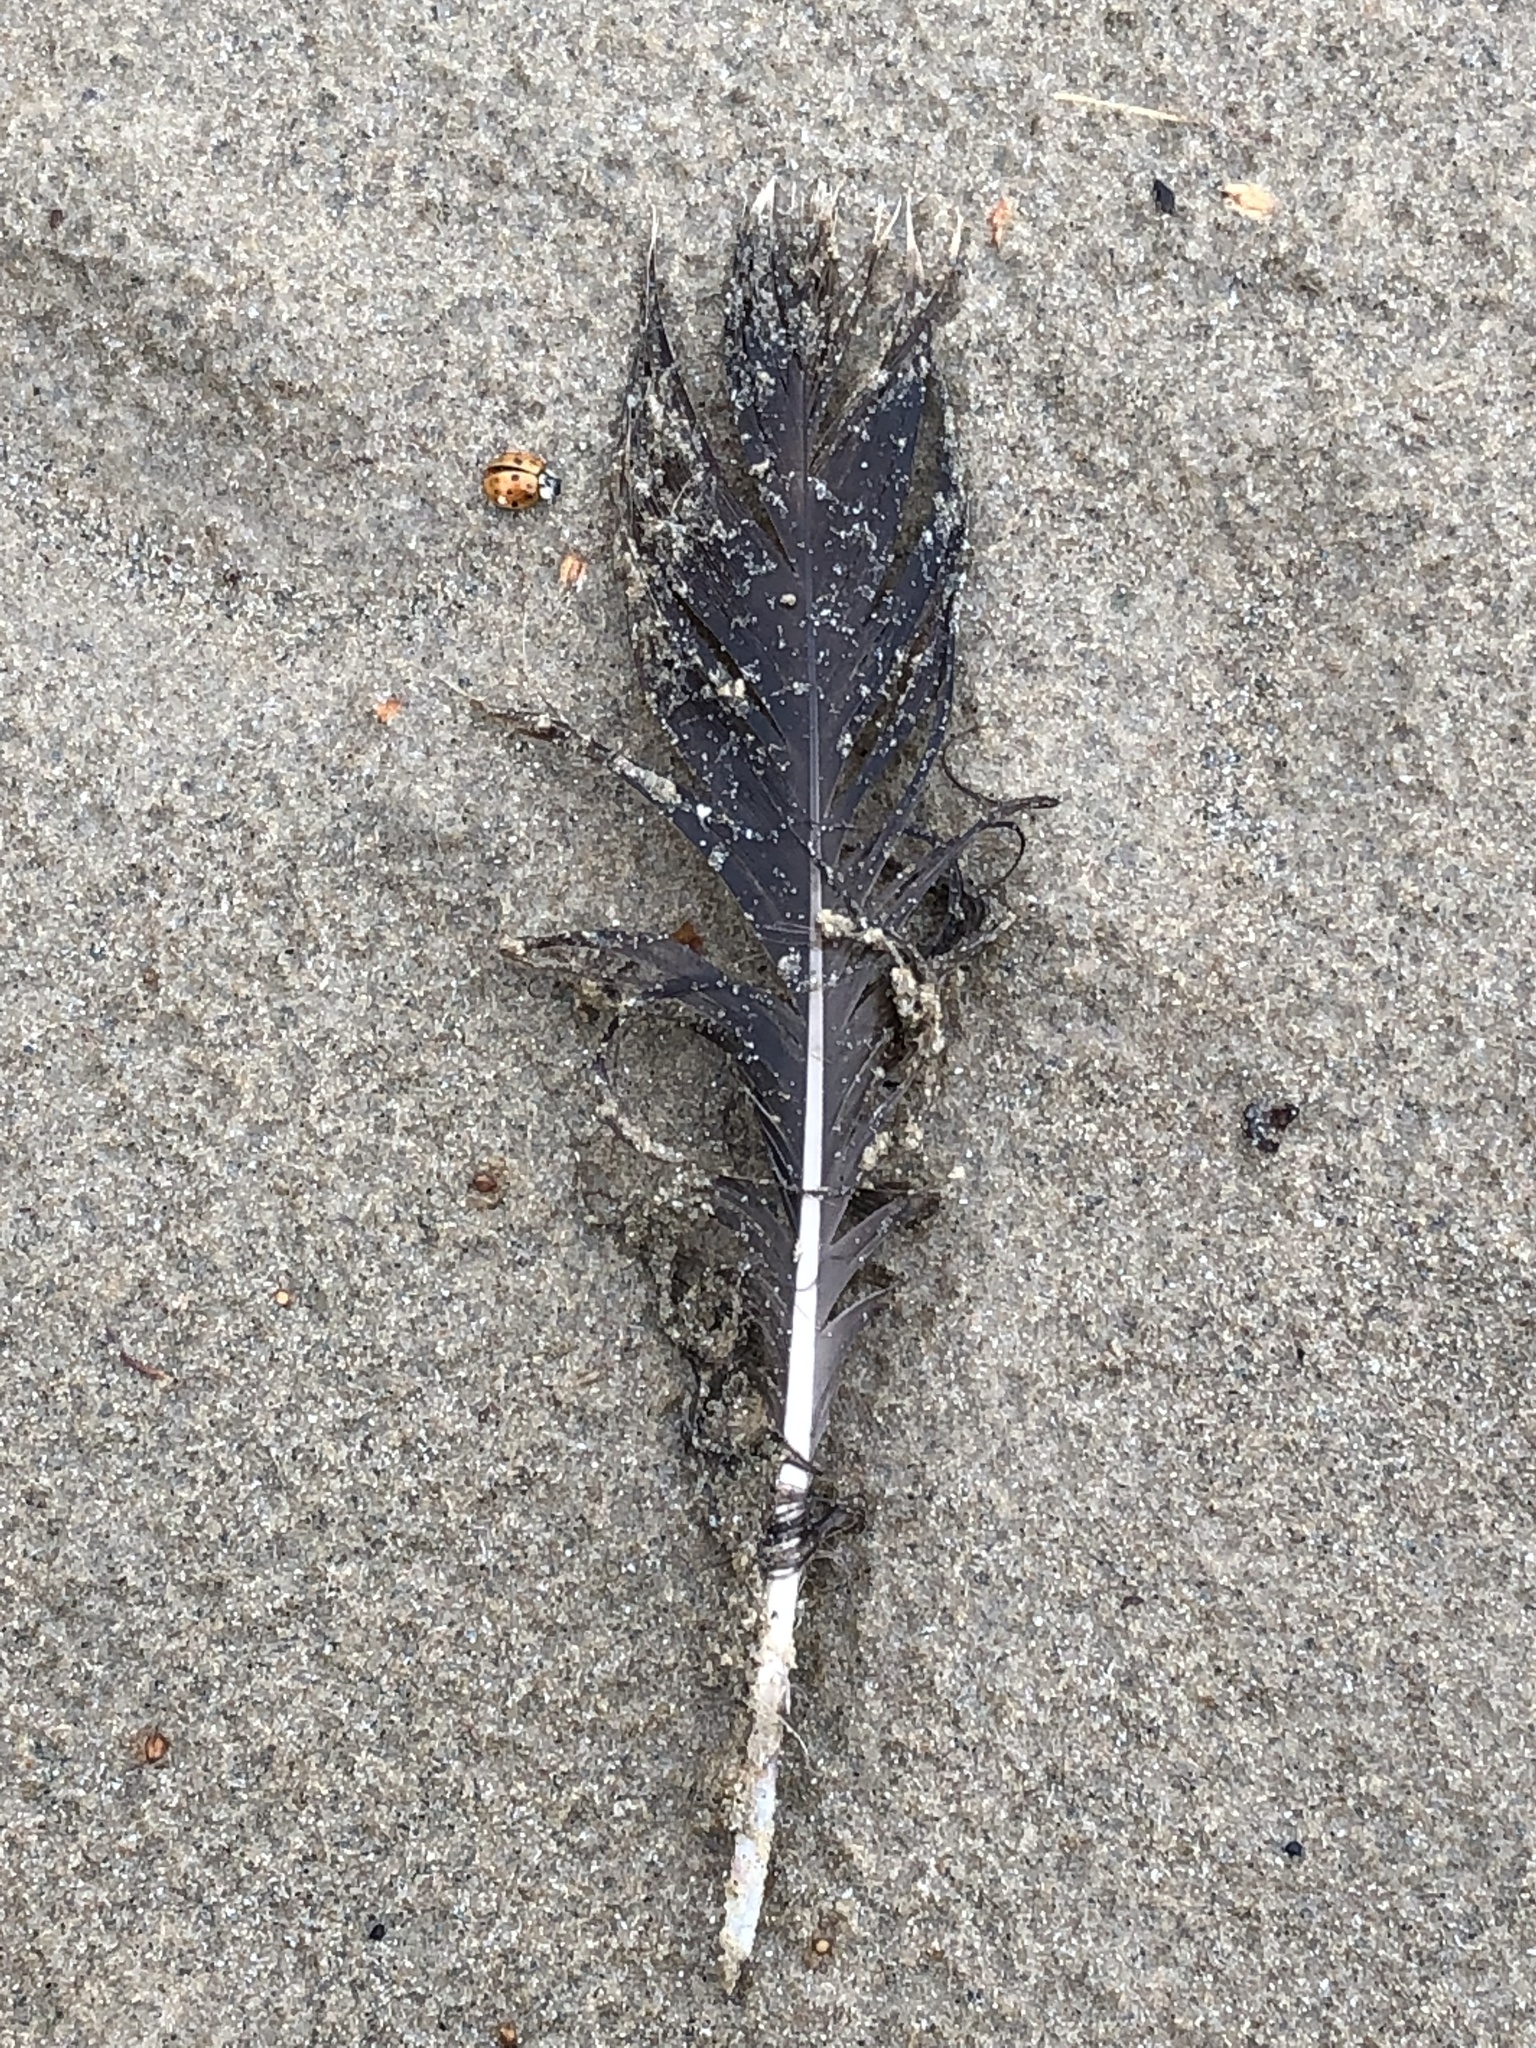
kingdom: Animalia
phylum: Chordata
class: Aves
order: Anseriformes
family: Anatidae
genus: Branta
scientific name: Branta canadensis
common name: Canada goose
